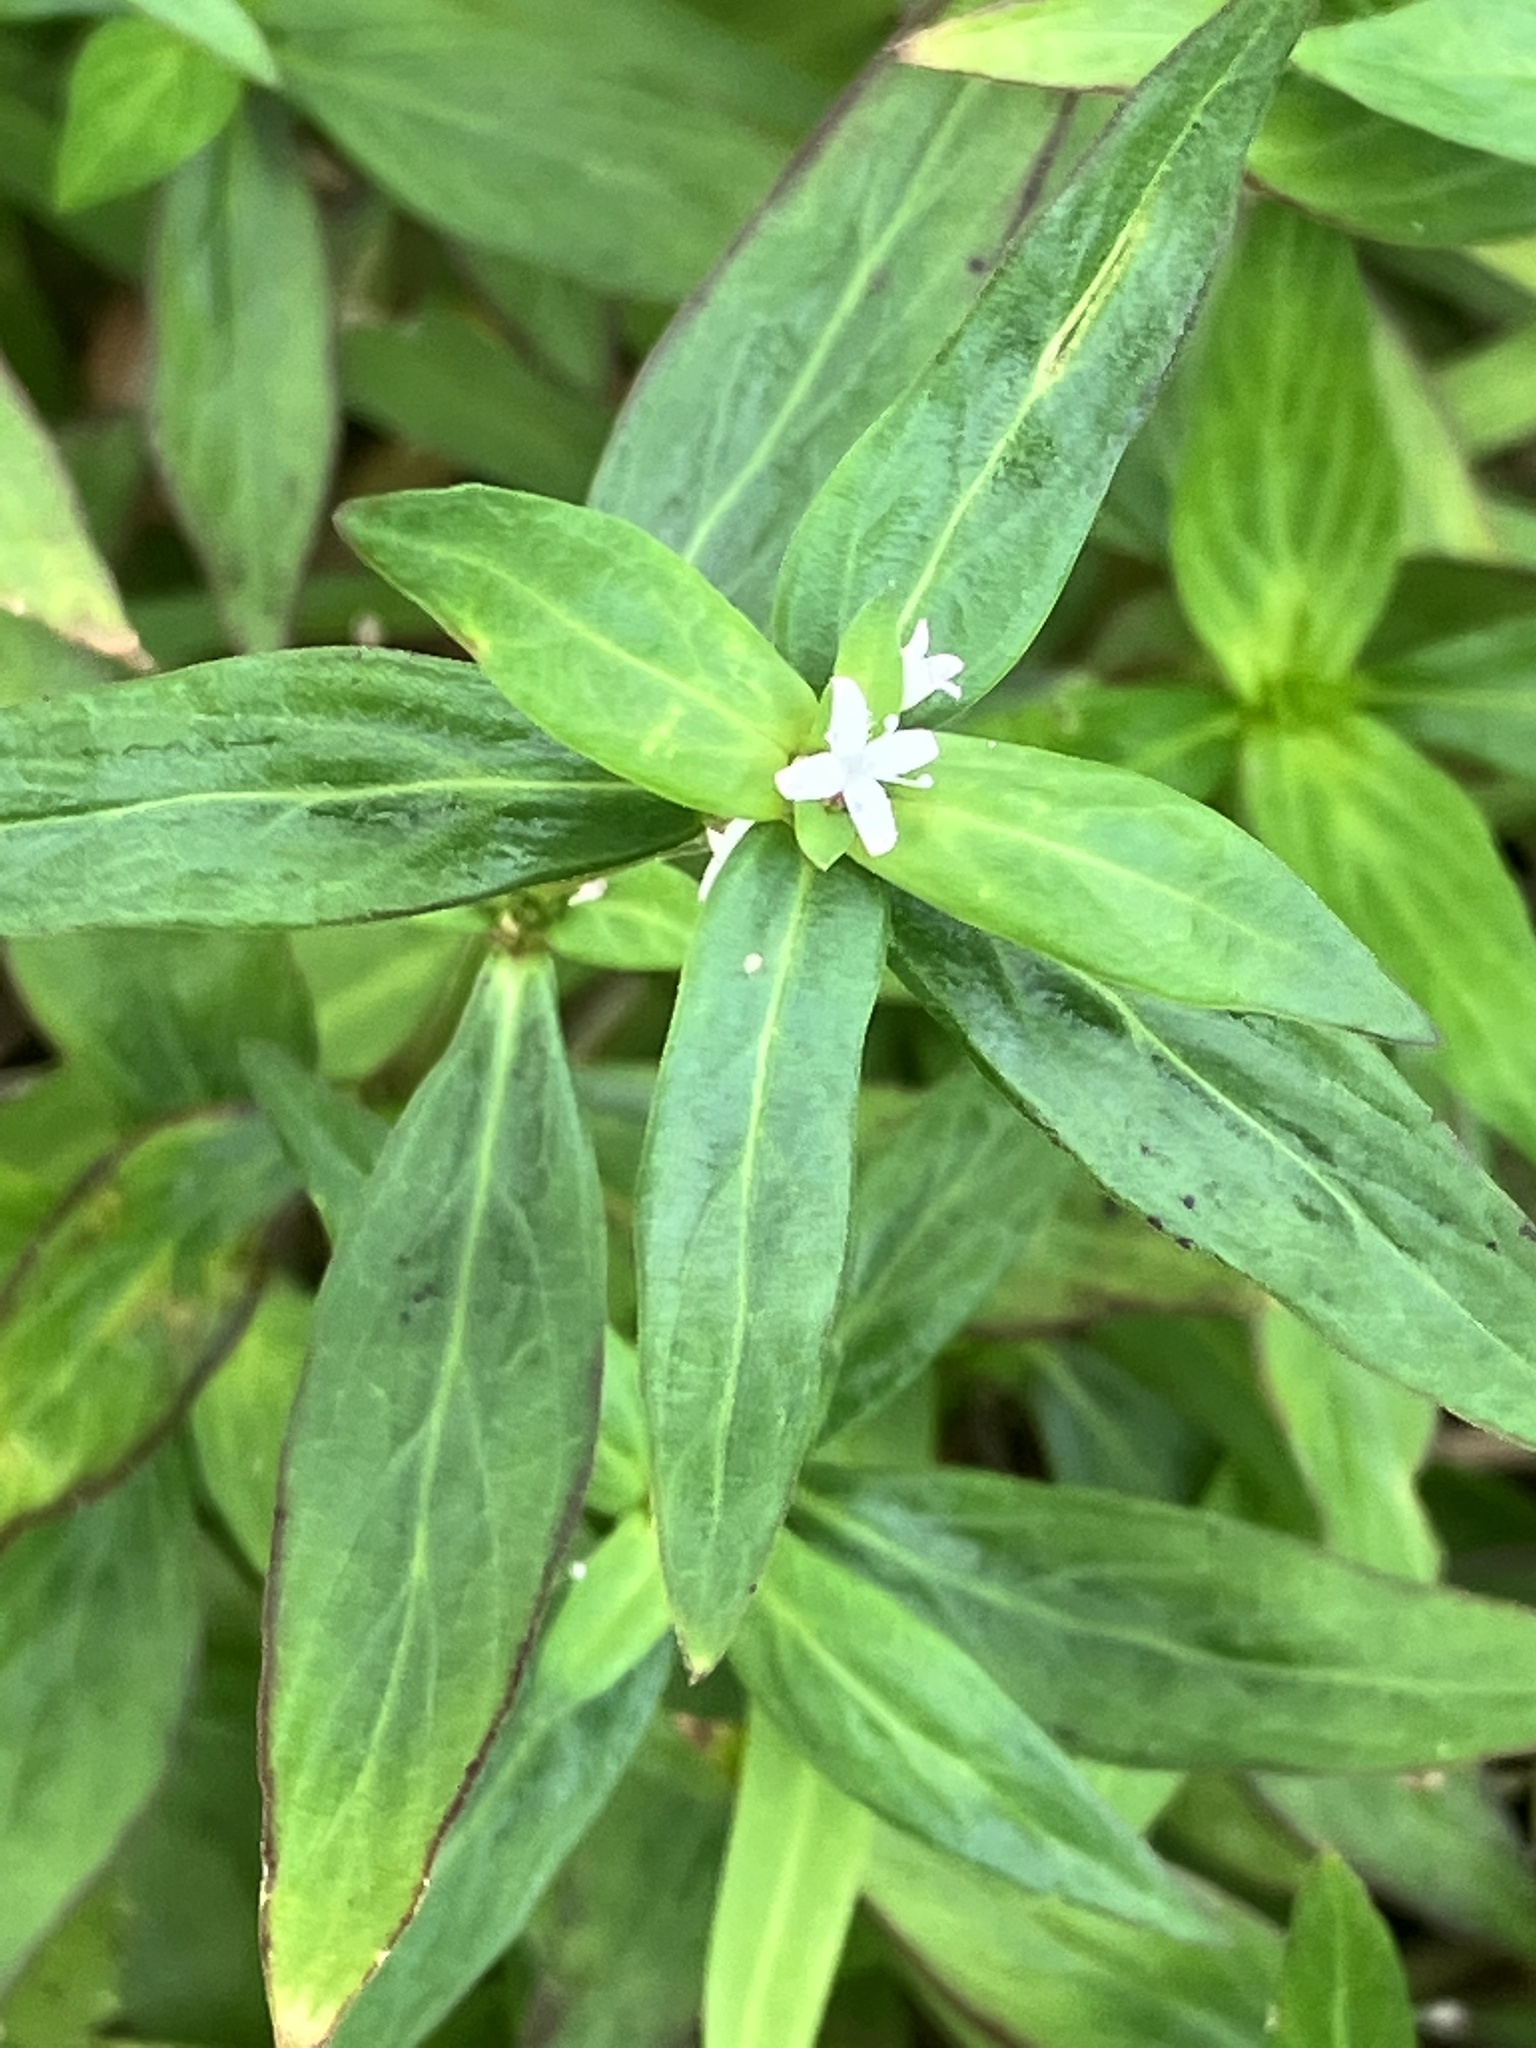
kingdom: Plantae
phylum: Tracheophyta
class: Magnoliopsida
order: Gentianales
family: Rubiaceae
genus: Spermacoce
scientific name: Spermacoce remota
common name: Woodland false buttonweed
